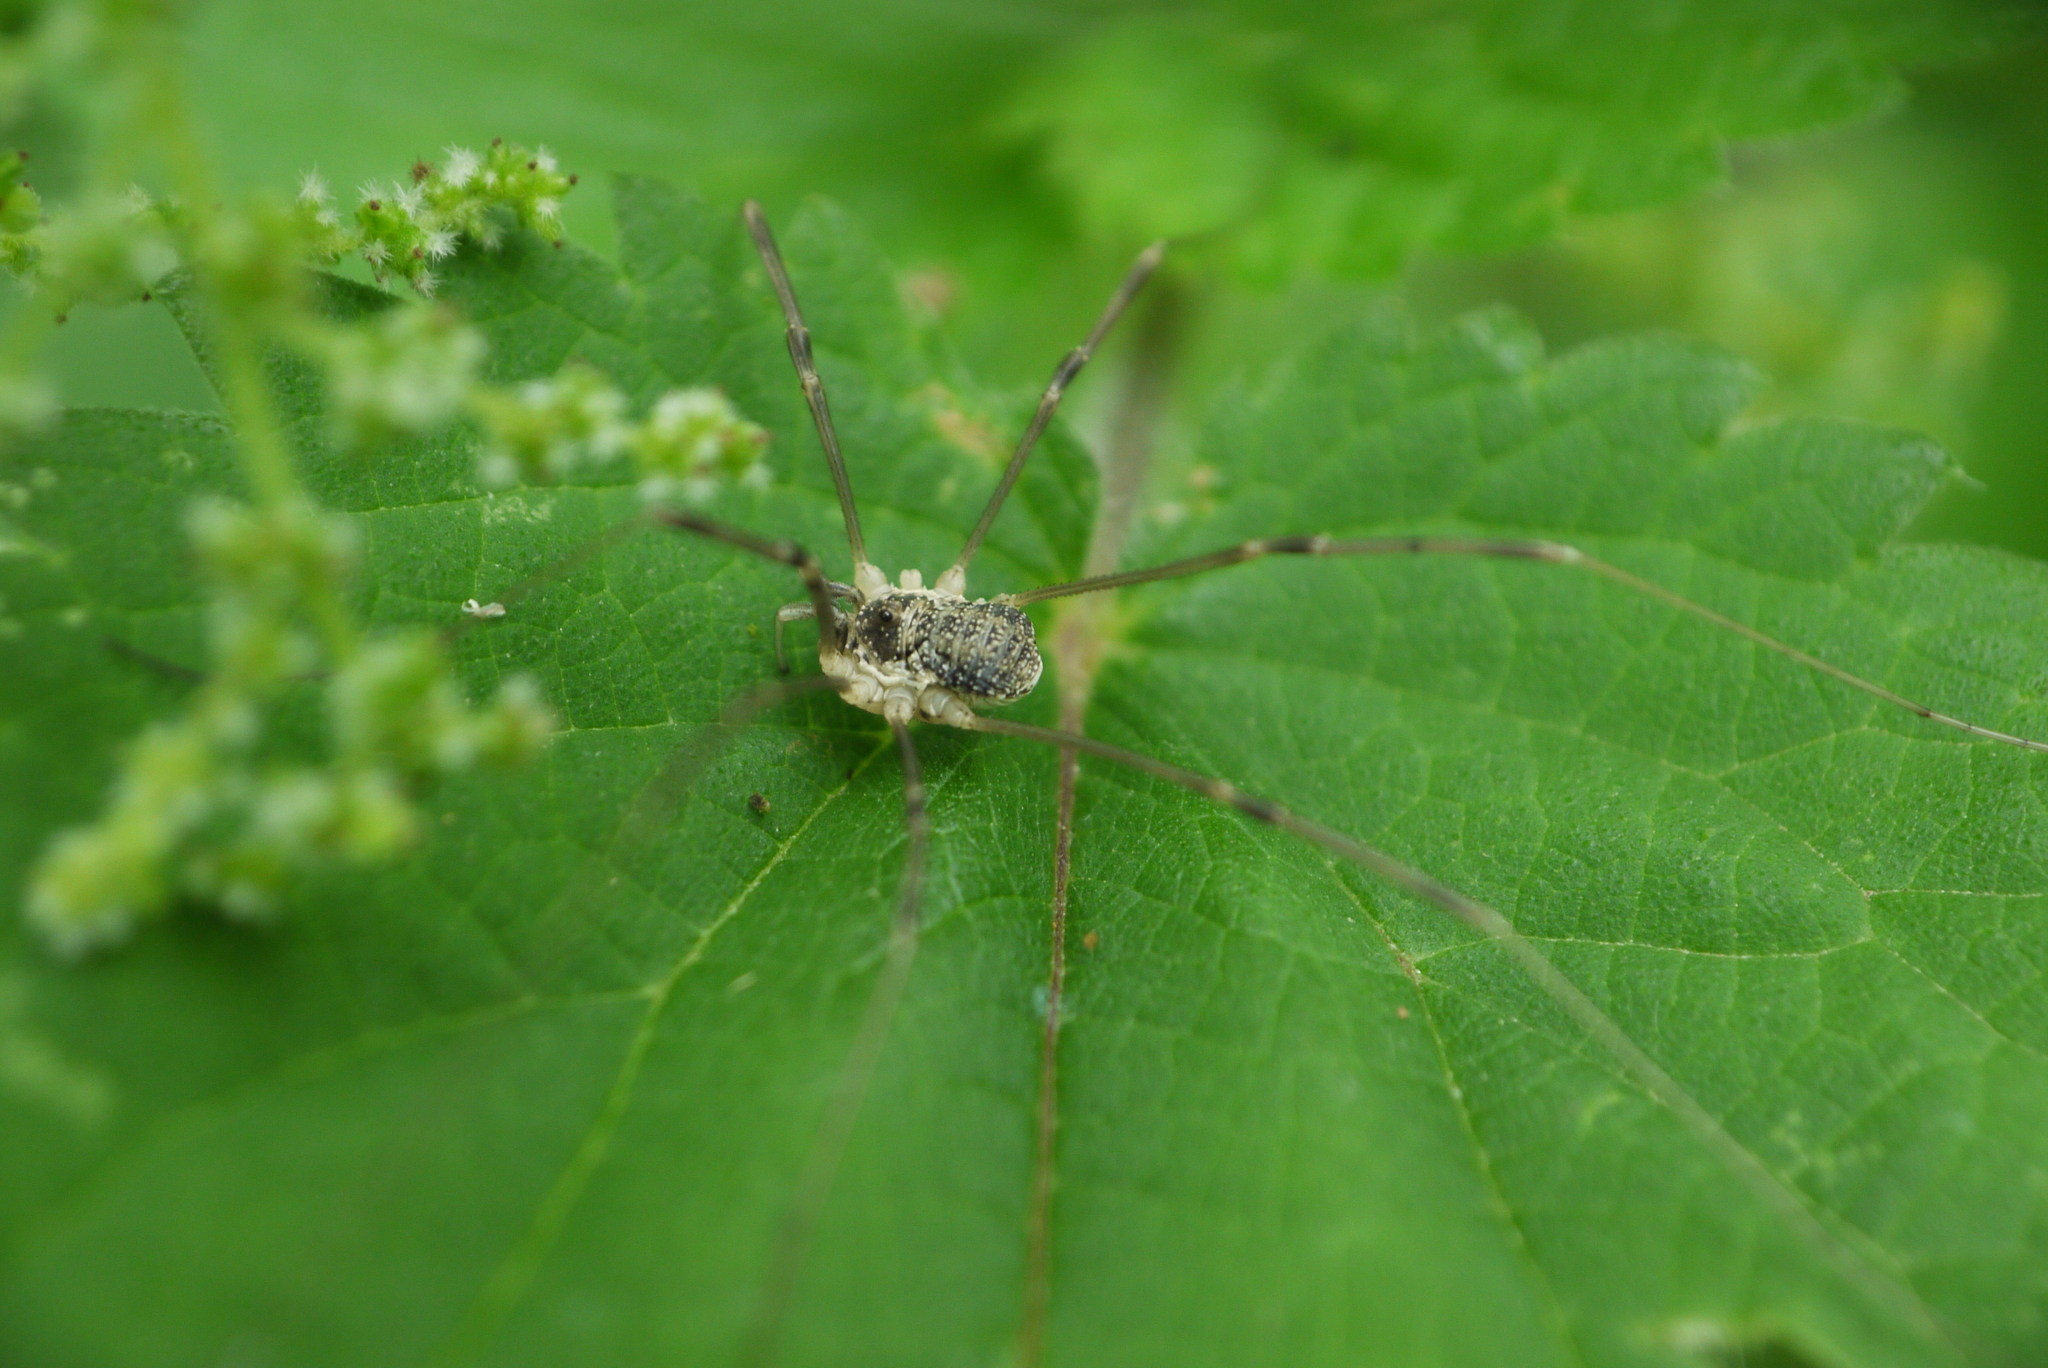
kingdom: Animalia
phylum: Arthropoda
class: Arachnida
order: Opiliones
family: Phalangiidae
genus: Mitopus
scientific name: Mitopus morio
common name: Saddleback harvestman
